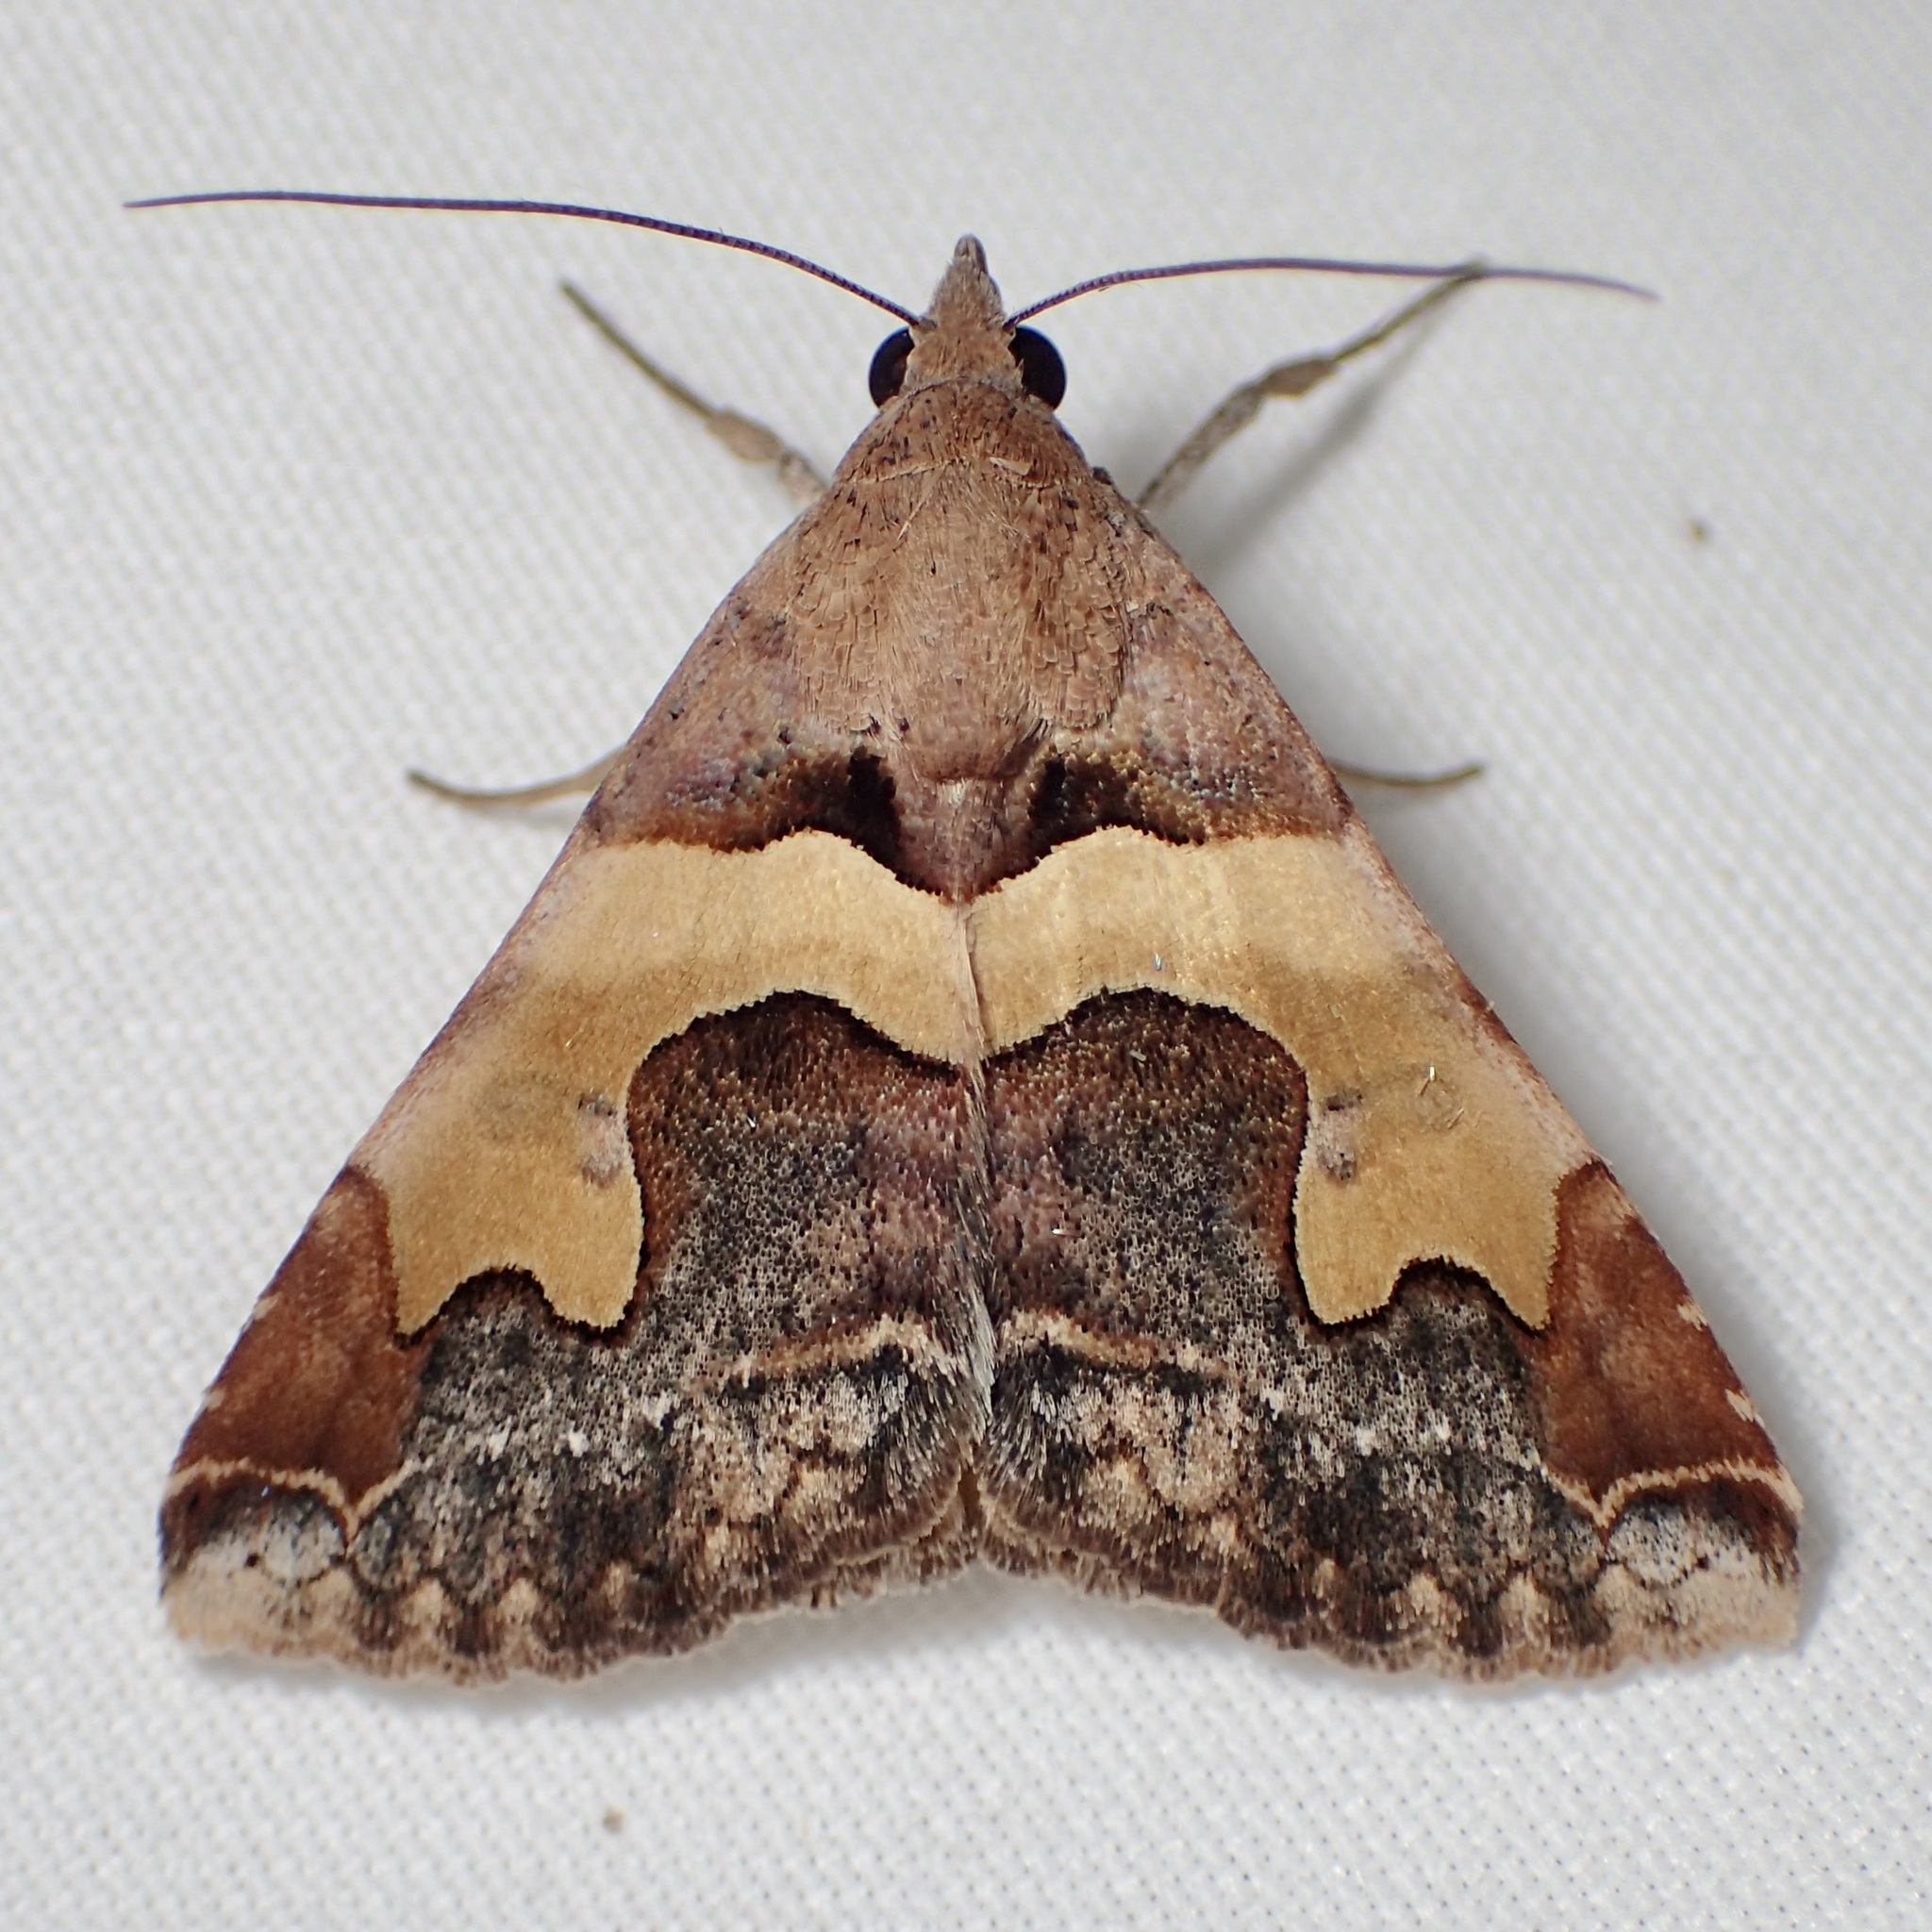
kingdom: Animalia
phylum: Arthropoda
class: Insecta
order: Lepidoptera
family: Erebidae
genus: Panula
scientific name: Panula inconstans
